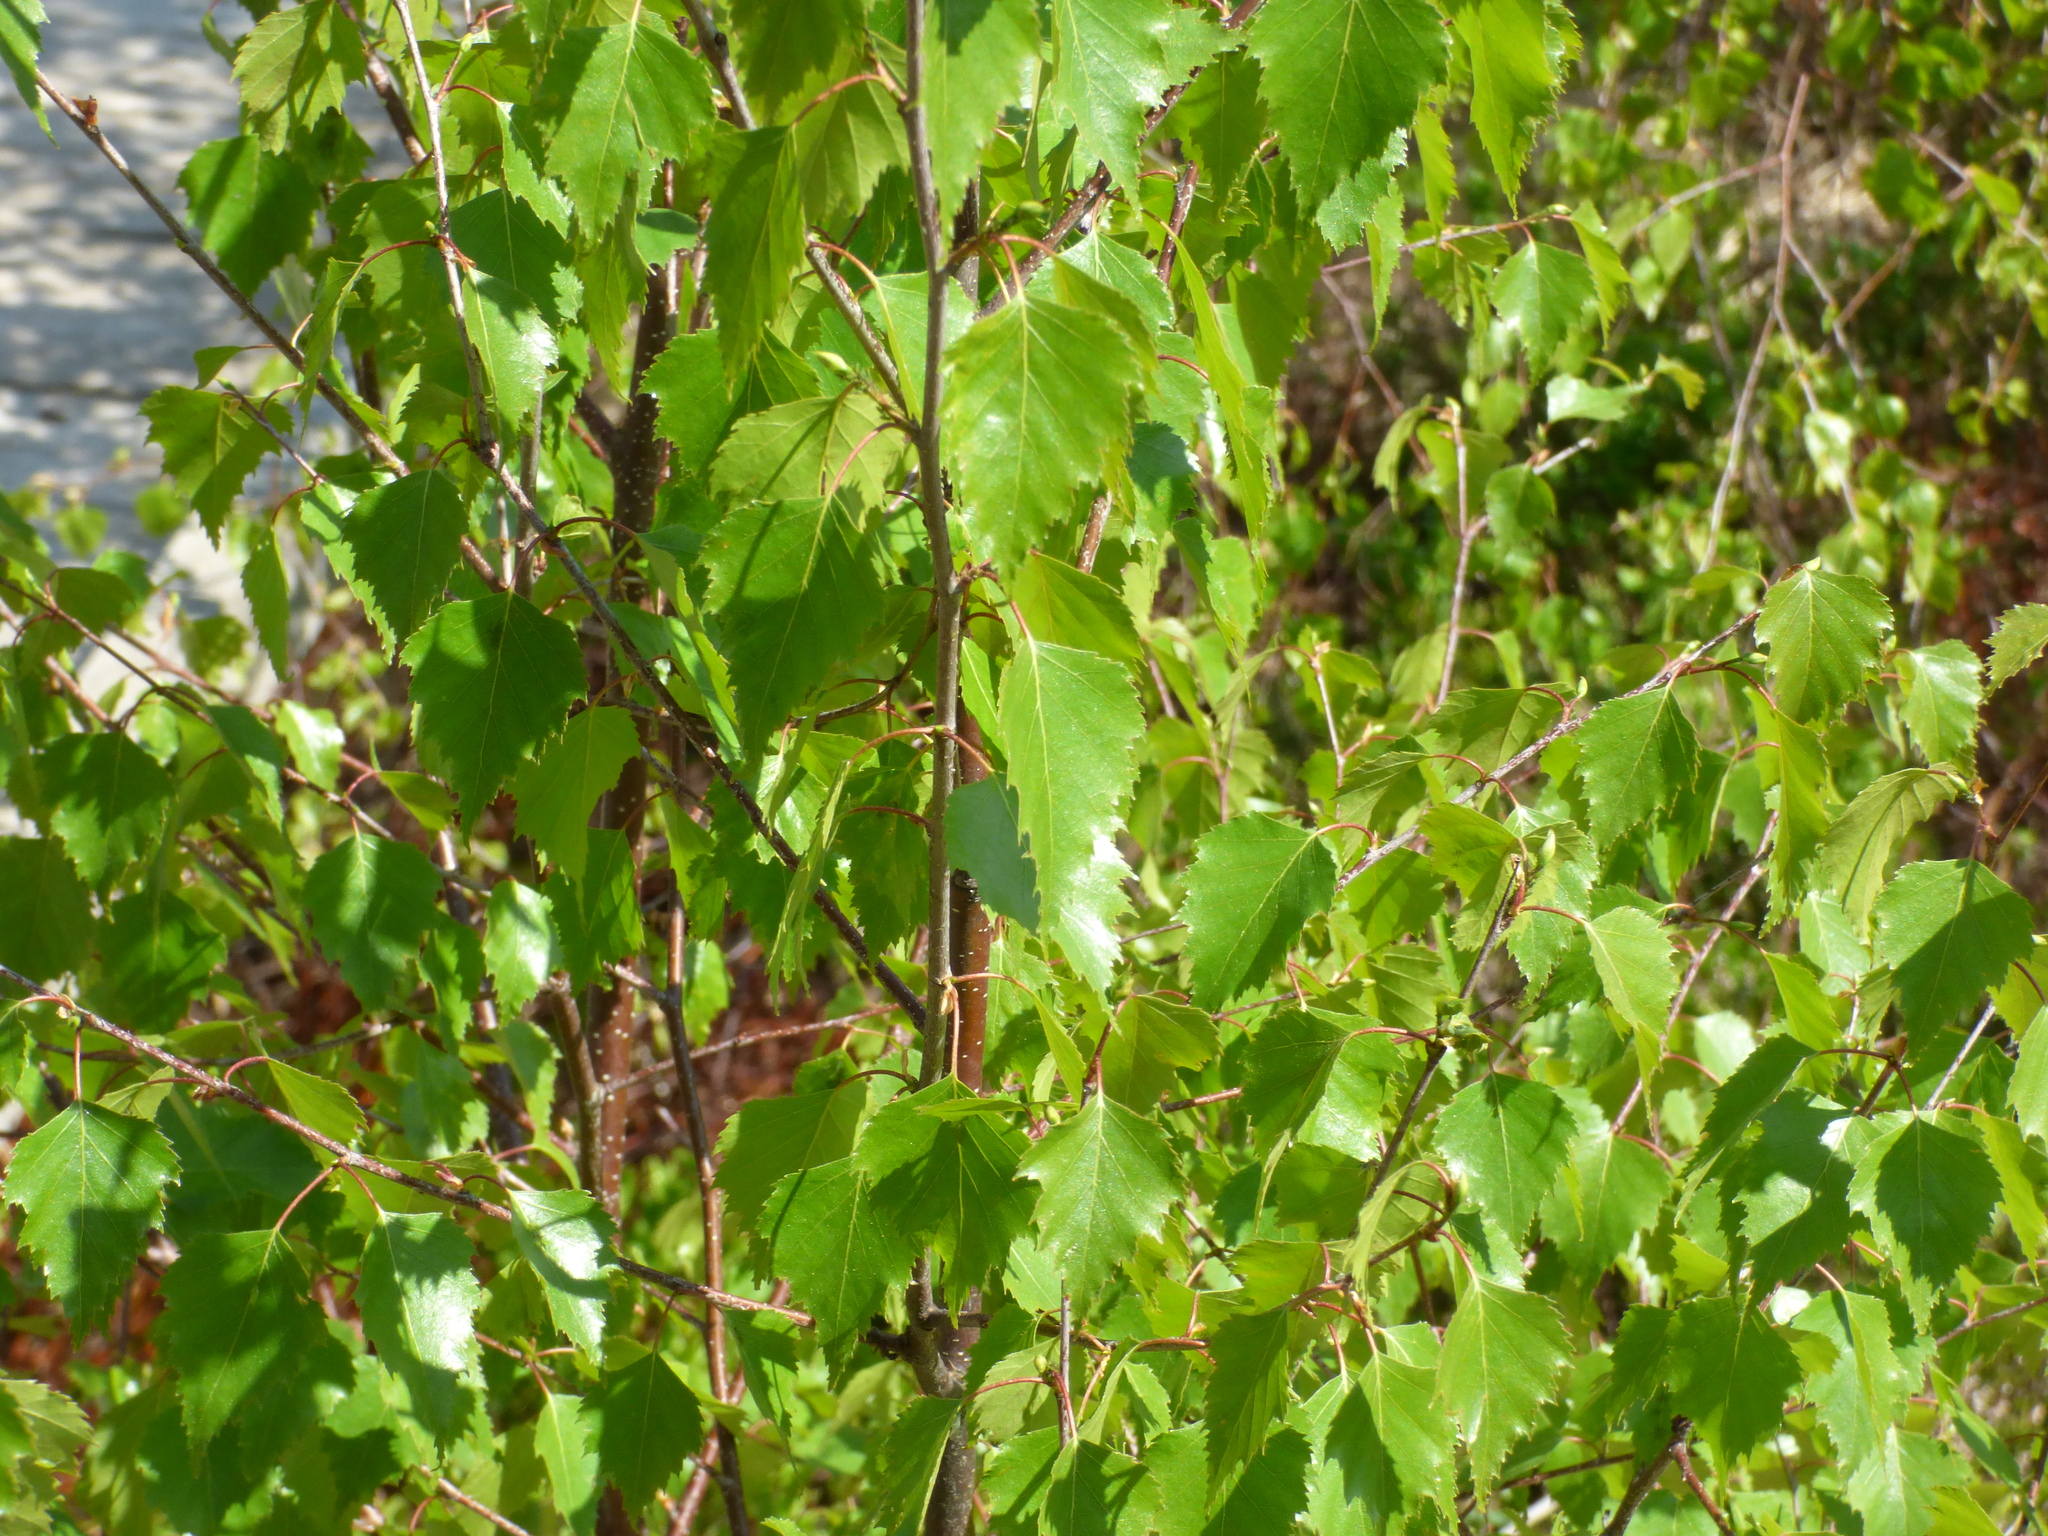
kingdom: Plantae
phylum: Tracheophyta
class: Magnoliopsida
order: Fagales
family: Betulaceae
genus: Betula
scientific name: Betula pendula
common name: Silver birch
